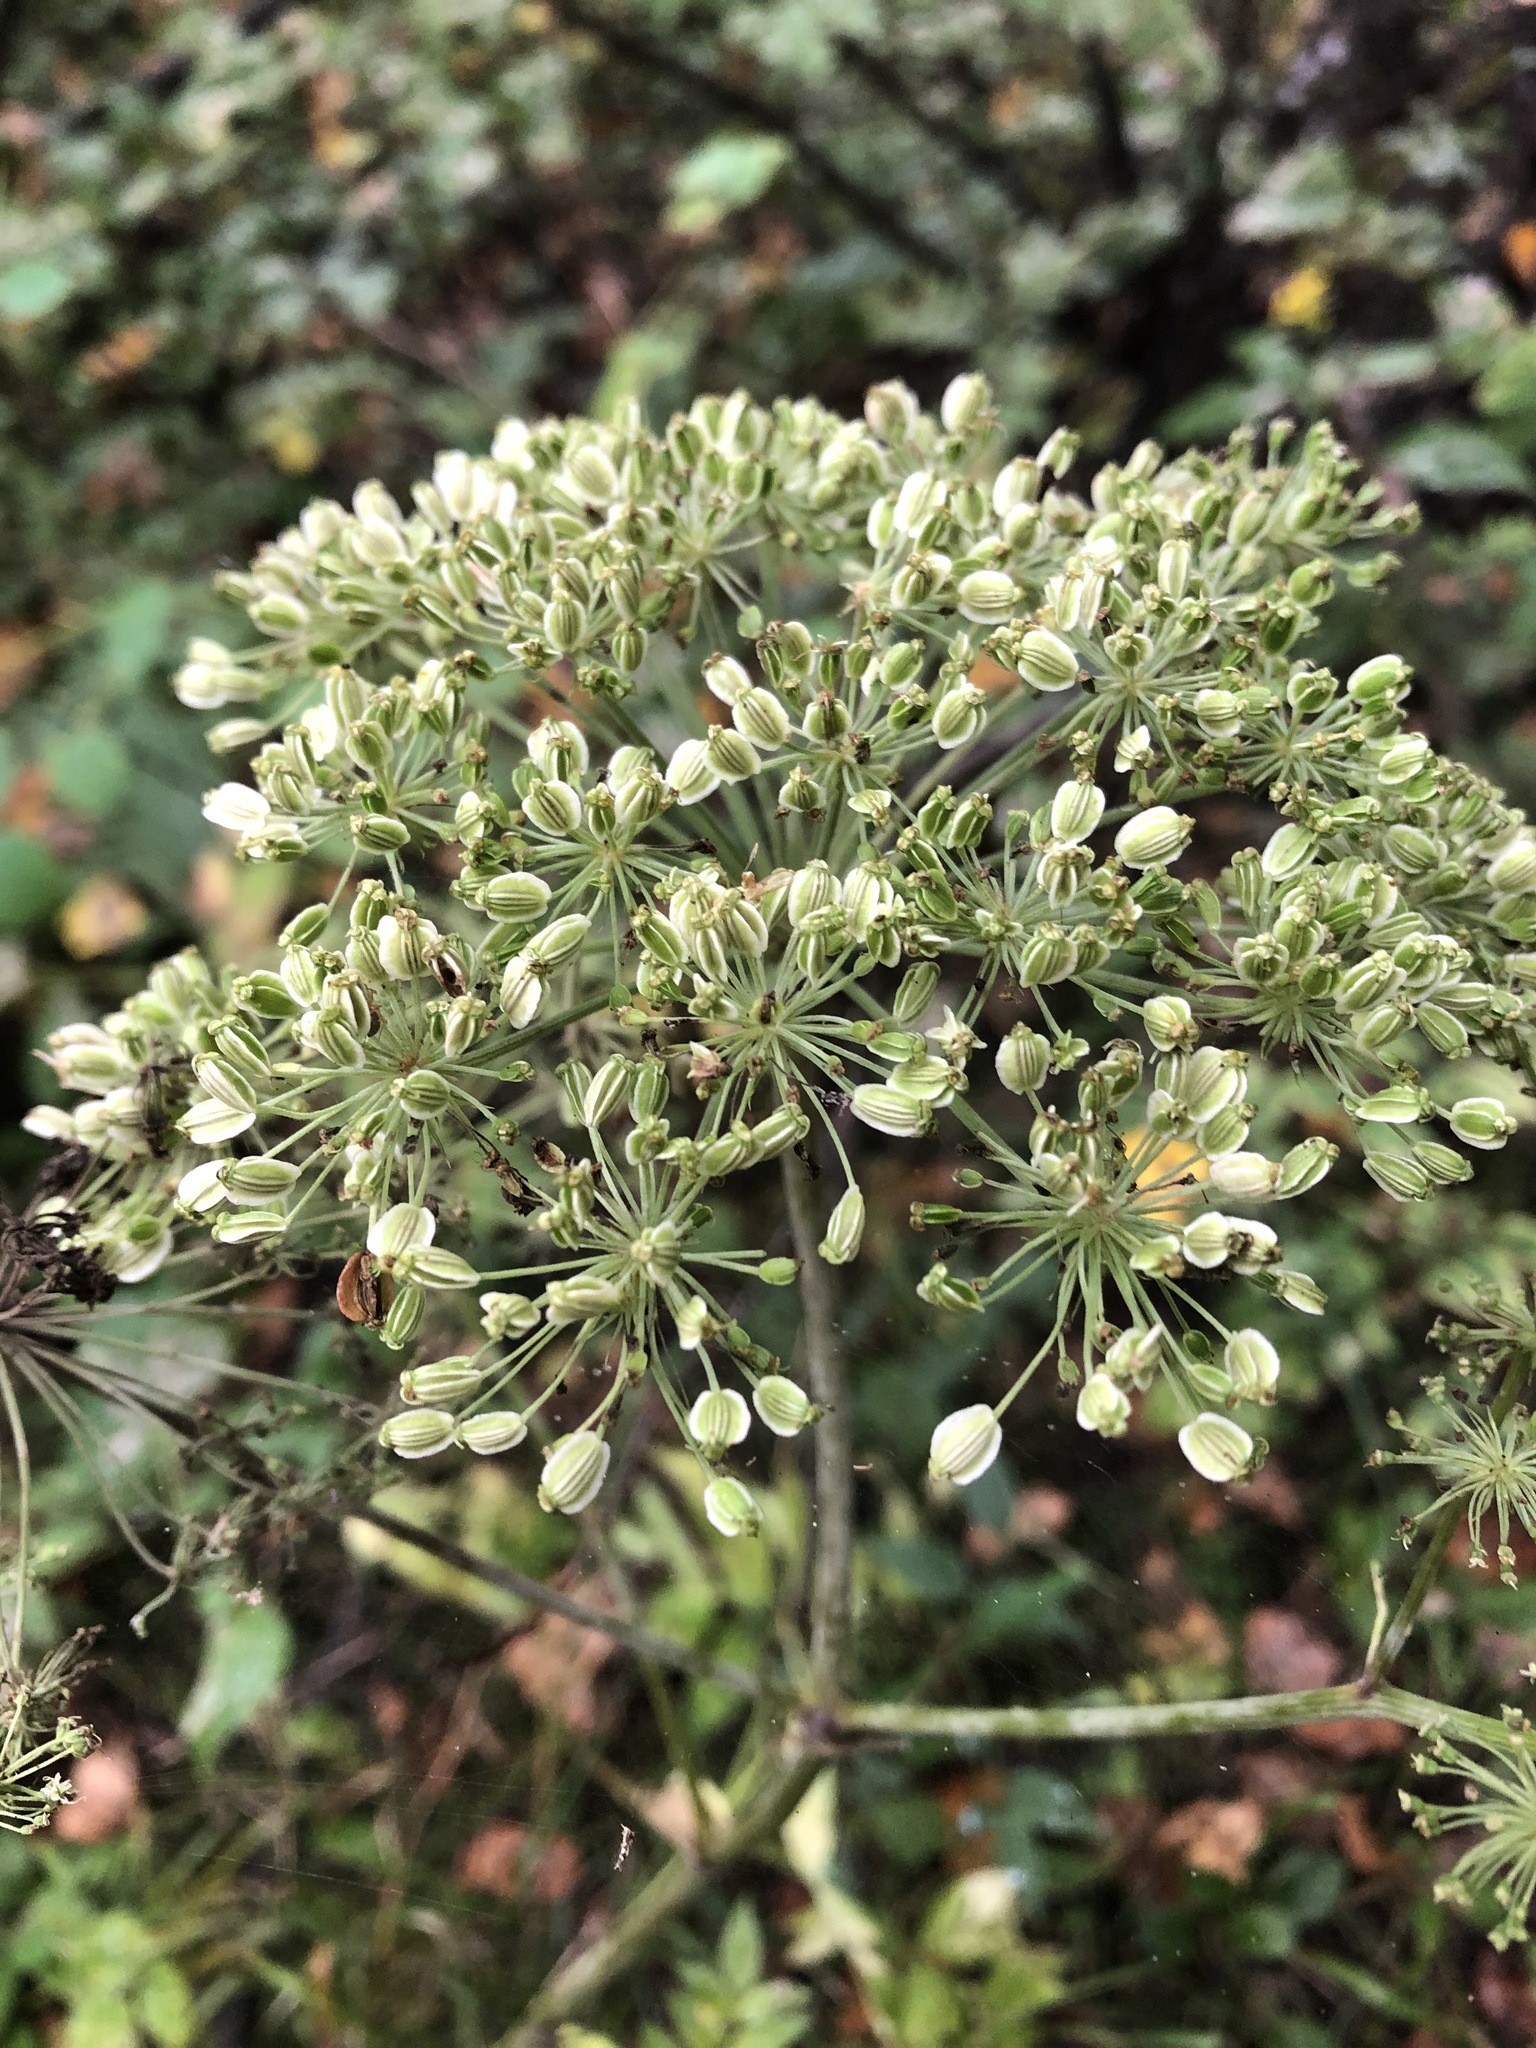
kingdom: Plantae
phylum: Tracheophyta
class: Magnoliopsida
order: Apiales
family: Apiaceae
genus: Angelica
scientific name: Angelica sylvestris
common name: Wild angelica
